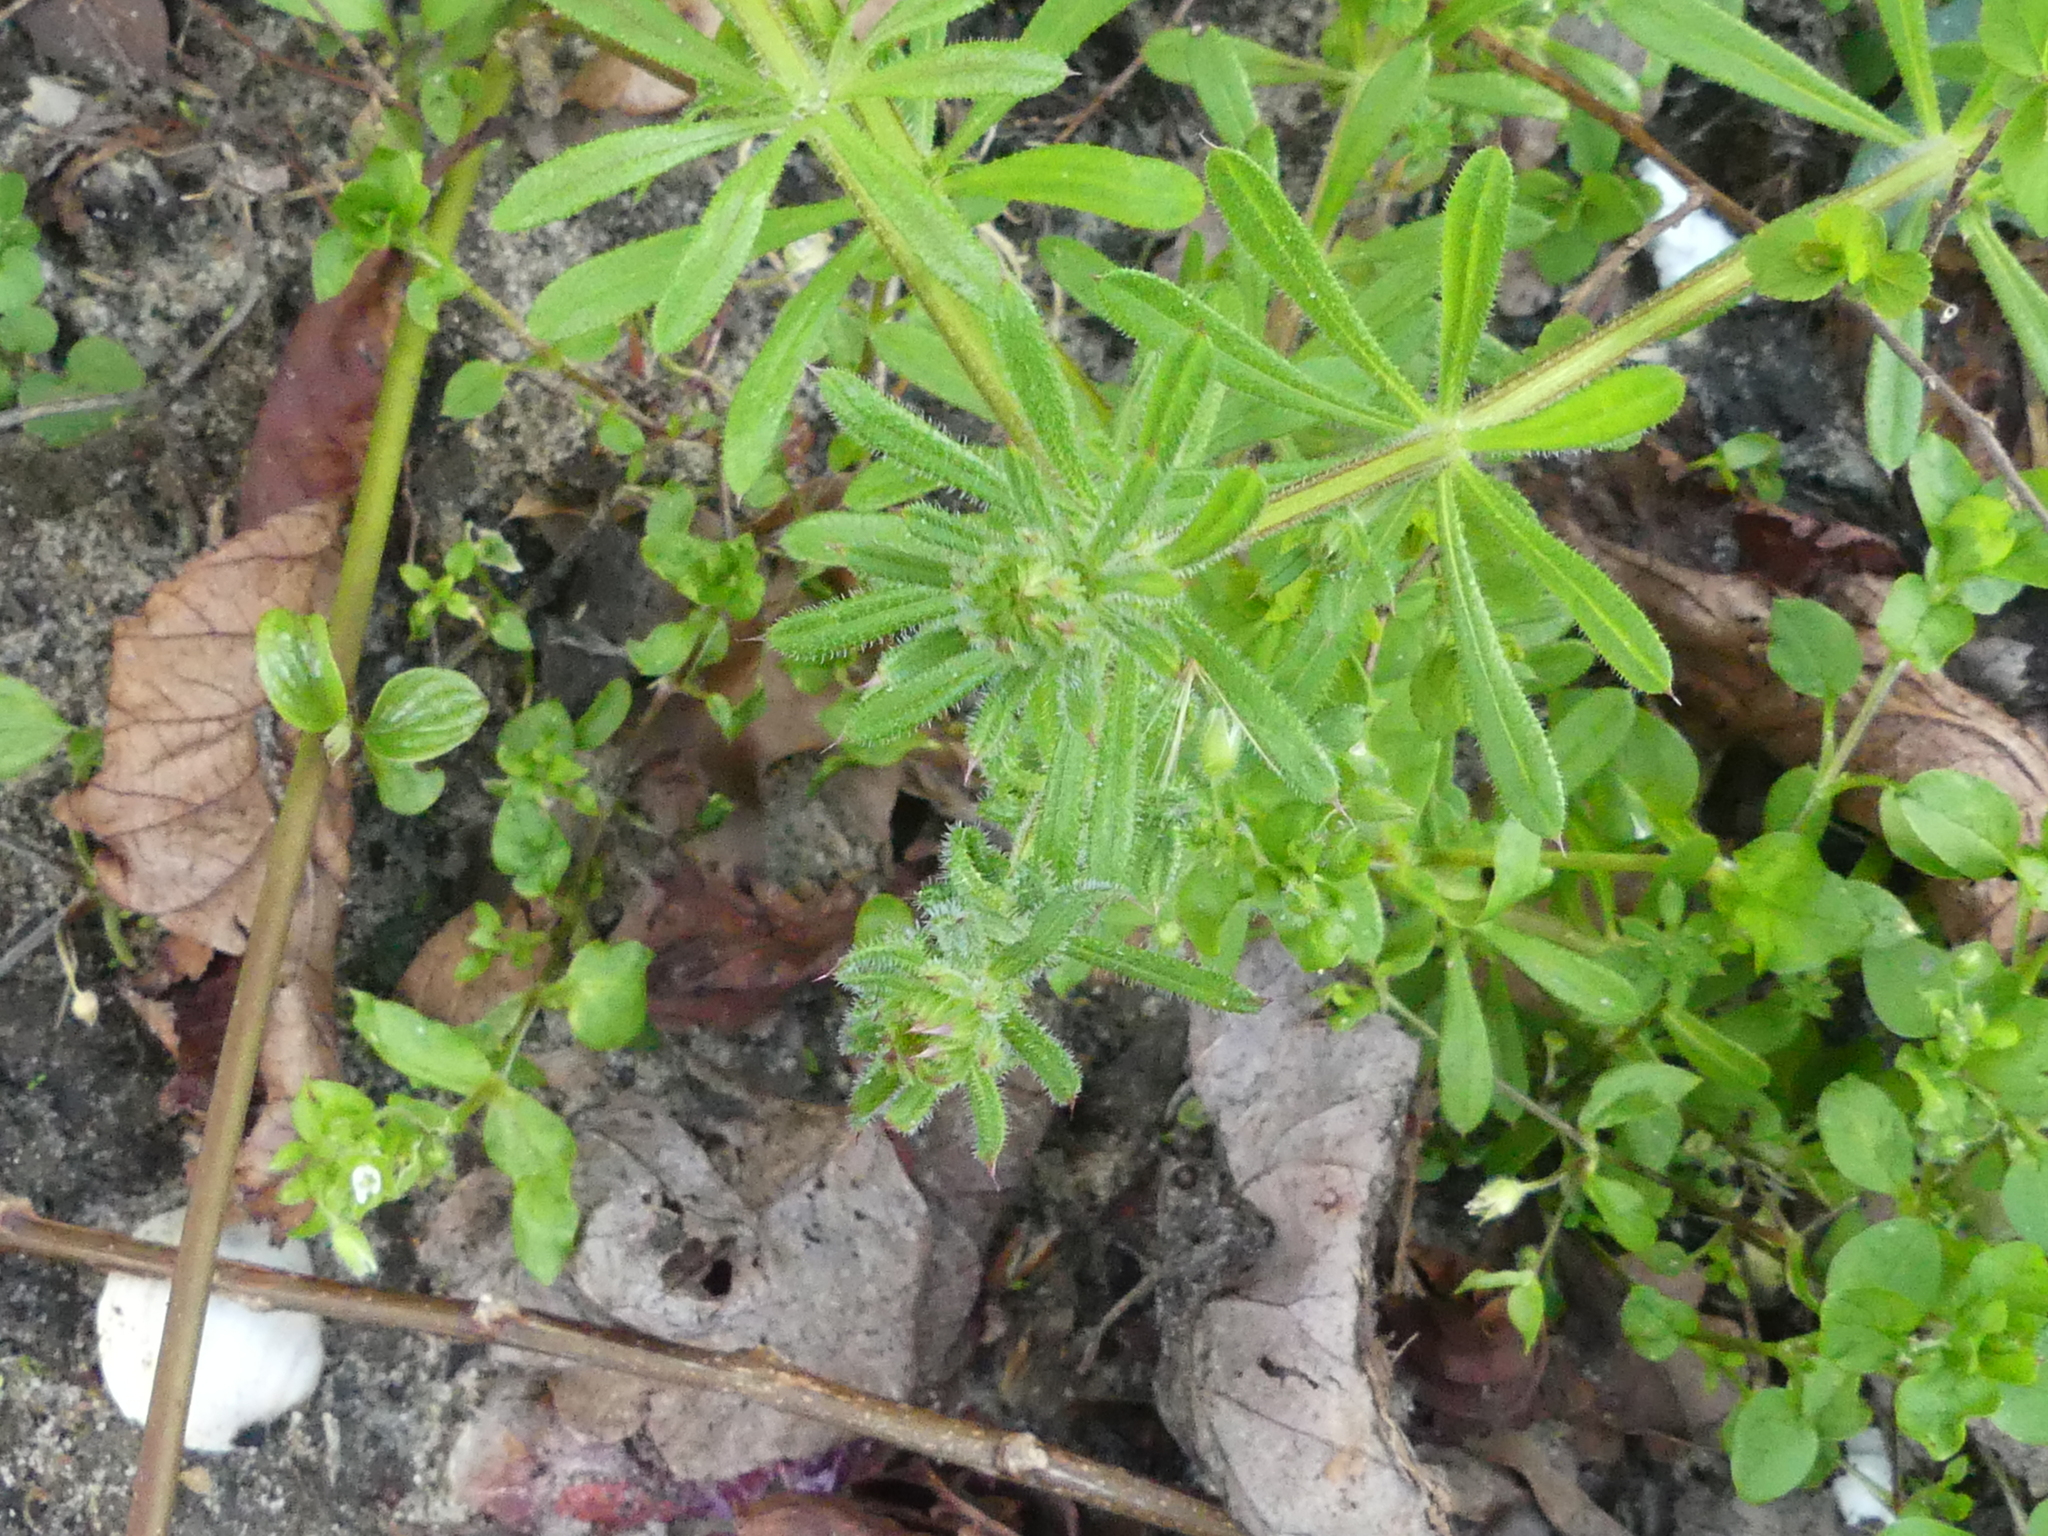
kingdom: Plantae
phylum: Tracheophyta
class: Magnoliopsida
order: Gentianales
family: Rubiaceae
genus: Galium
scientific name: Galium aparine
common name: Cleavers
